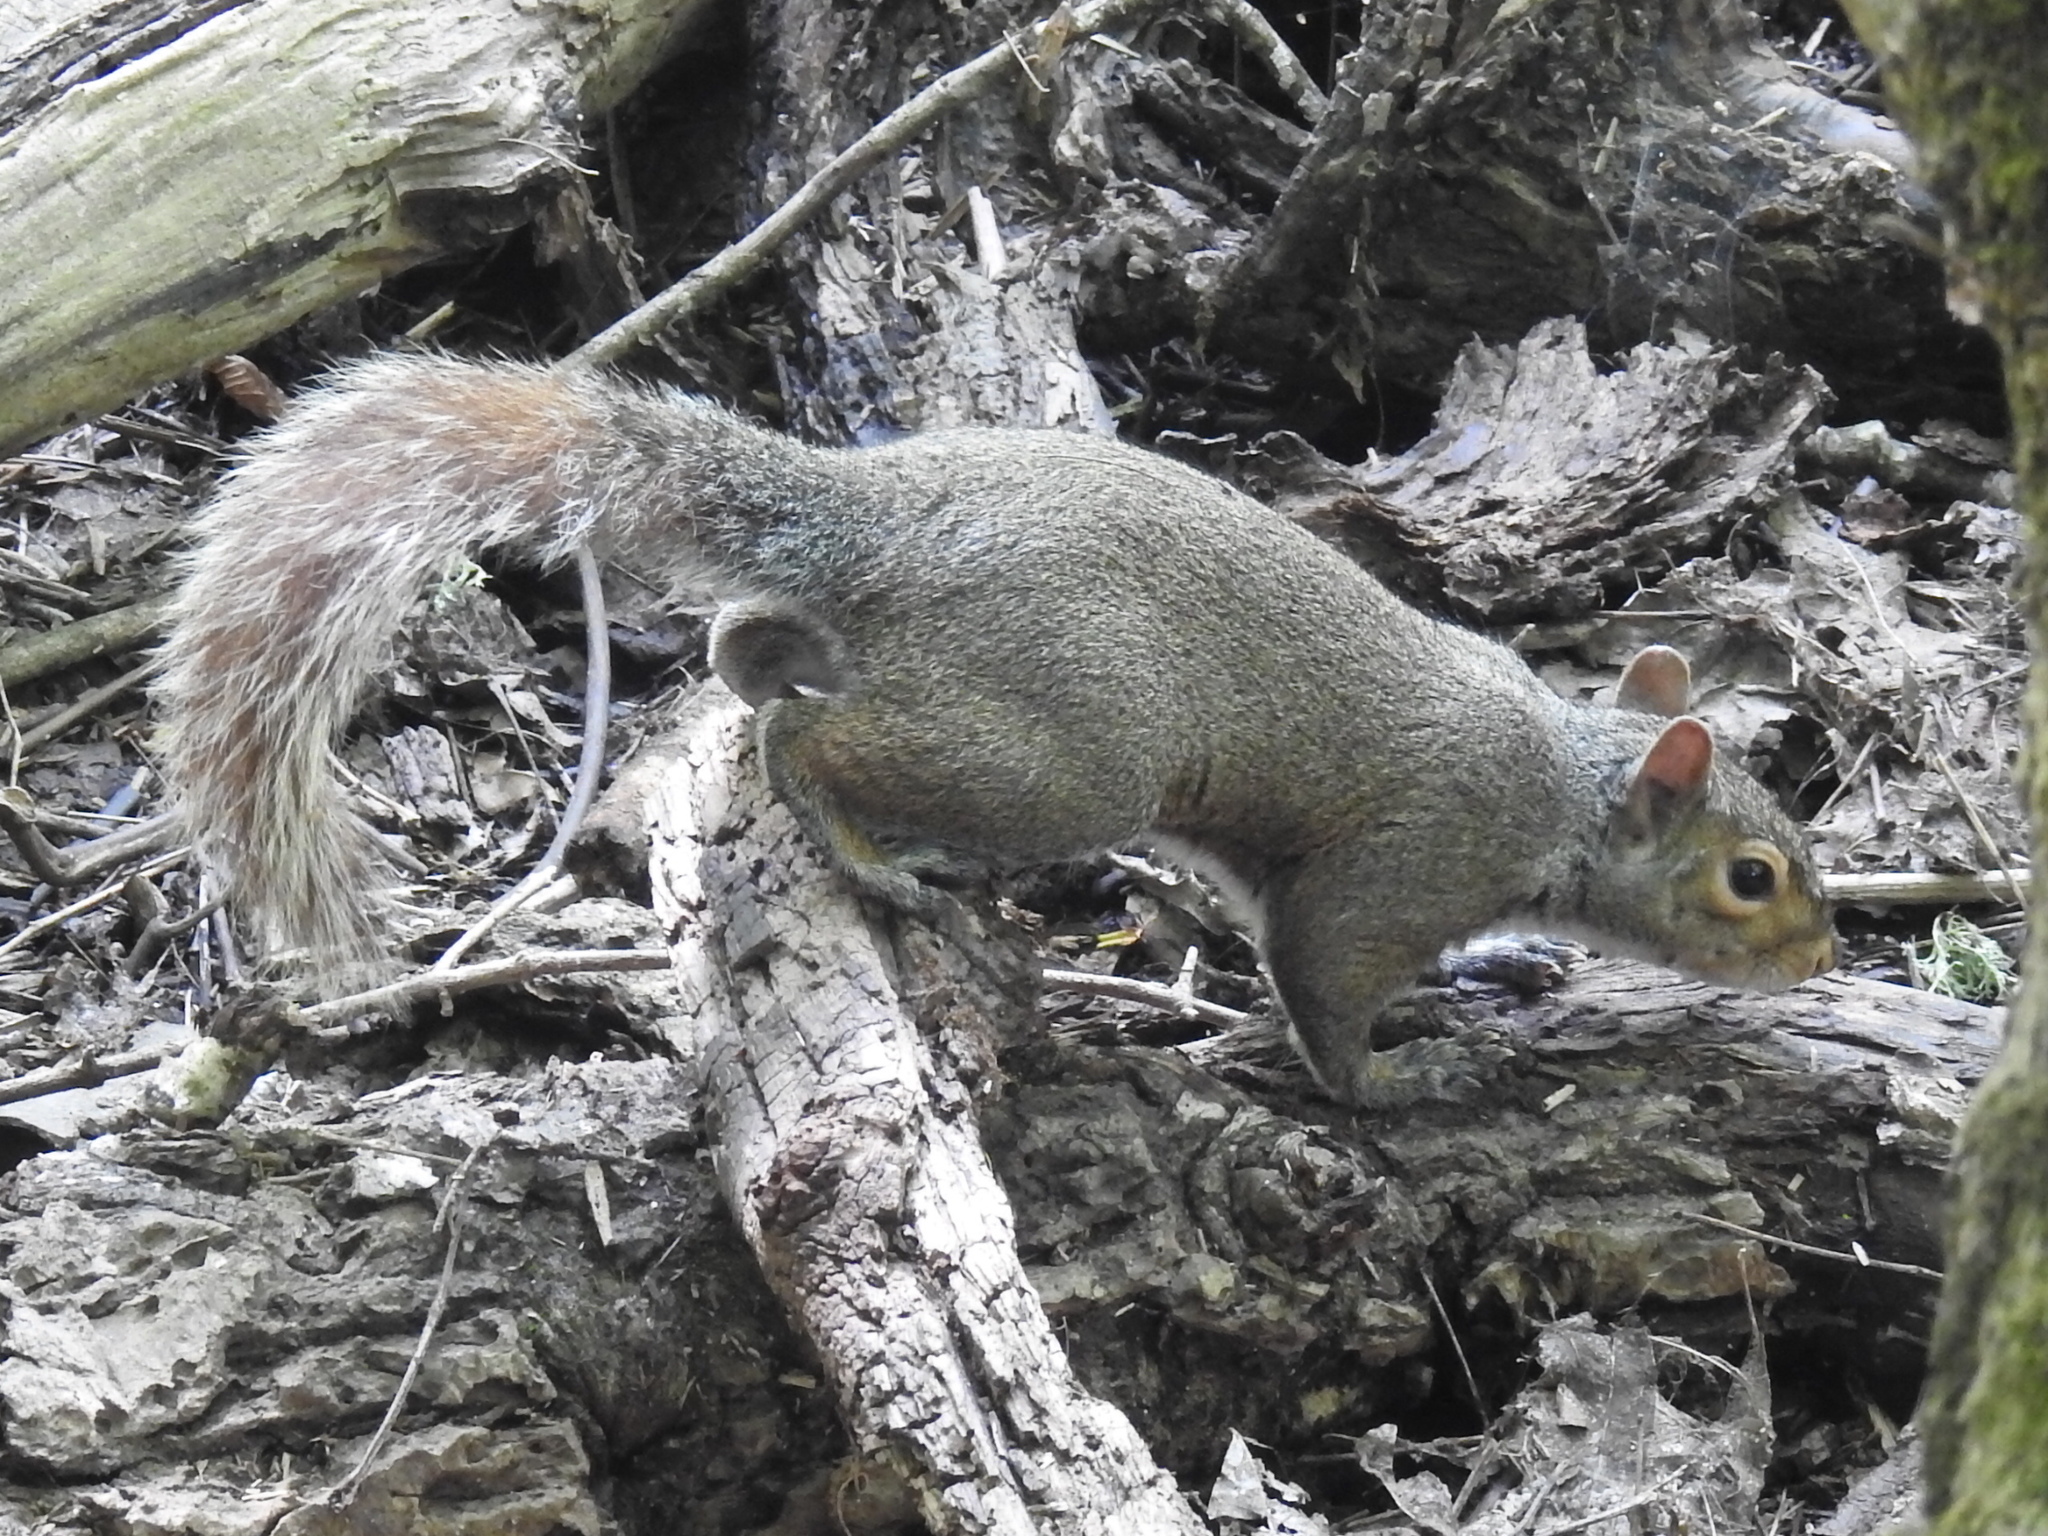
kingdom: Animalia
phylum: Chordata
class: Mammalia
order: Rodentia
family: Sciuridae
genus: Sciurus
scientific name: Sciurus carolinensis
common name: Eastern gray squirrel
